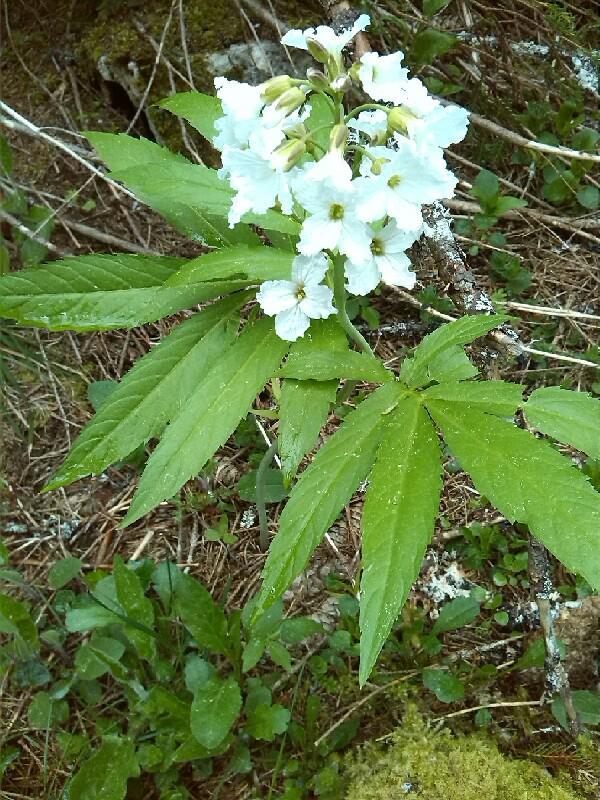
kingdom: Plantae
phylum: Tracheophyta
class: Magnoliopsida
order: Brassicales
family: Brassicaceae
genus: Cardamine
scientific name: Cardamine heptaphylla
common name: Pinnate coralroot
